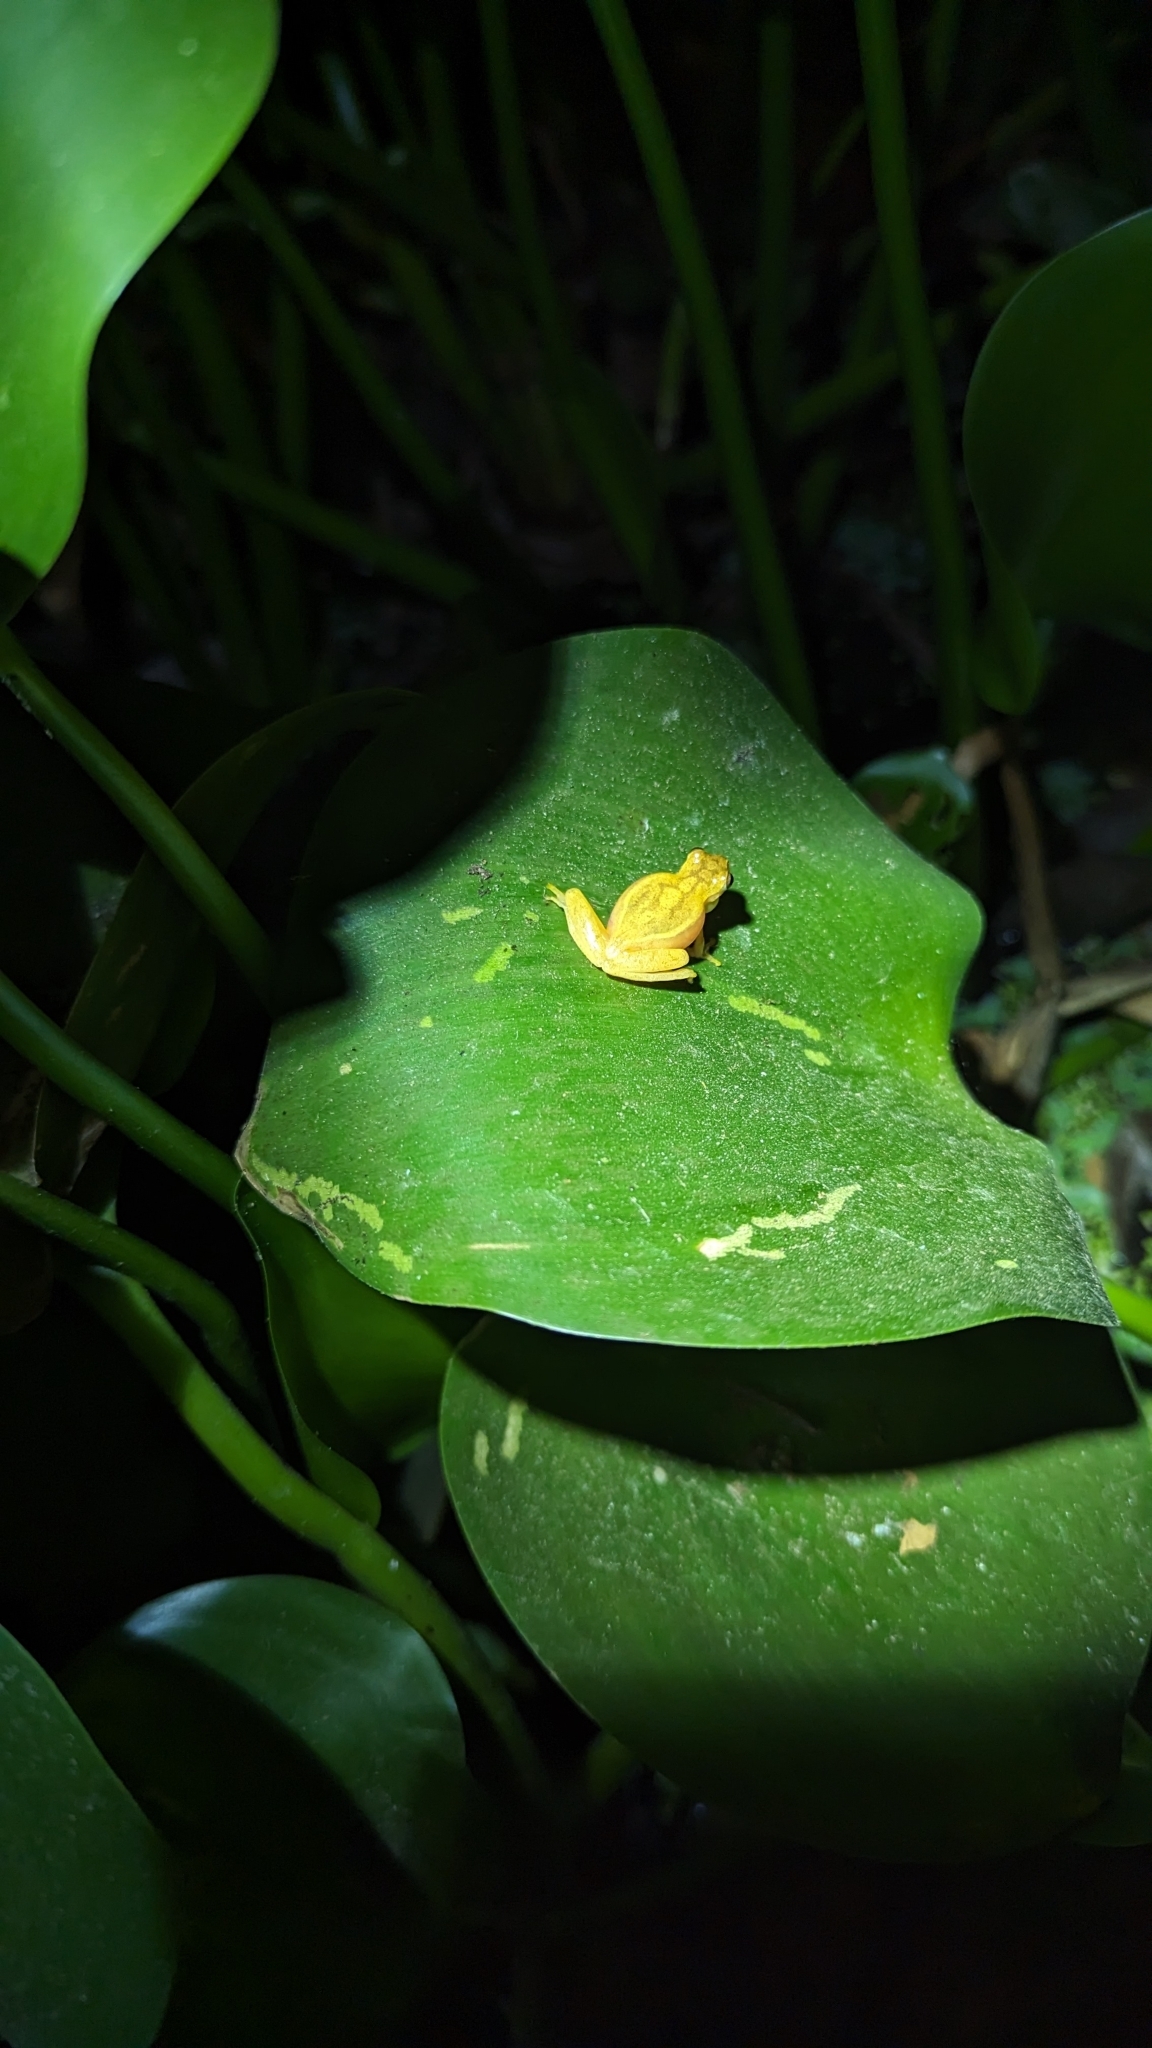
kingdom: Animalia
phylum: Chordata
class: Amphibia
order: Anura
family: Hylidae
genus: Dendropsophus
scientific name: Dendropsophus microcephalus
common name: Small-headed treefrog
